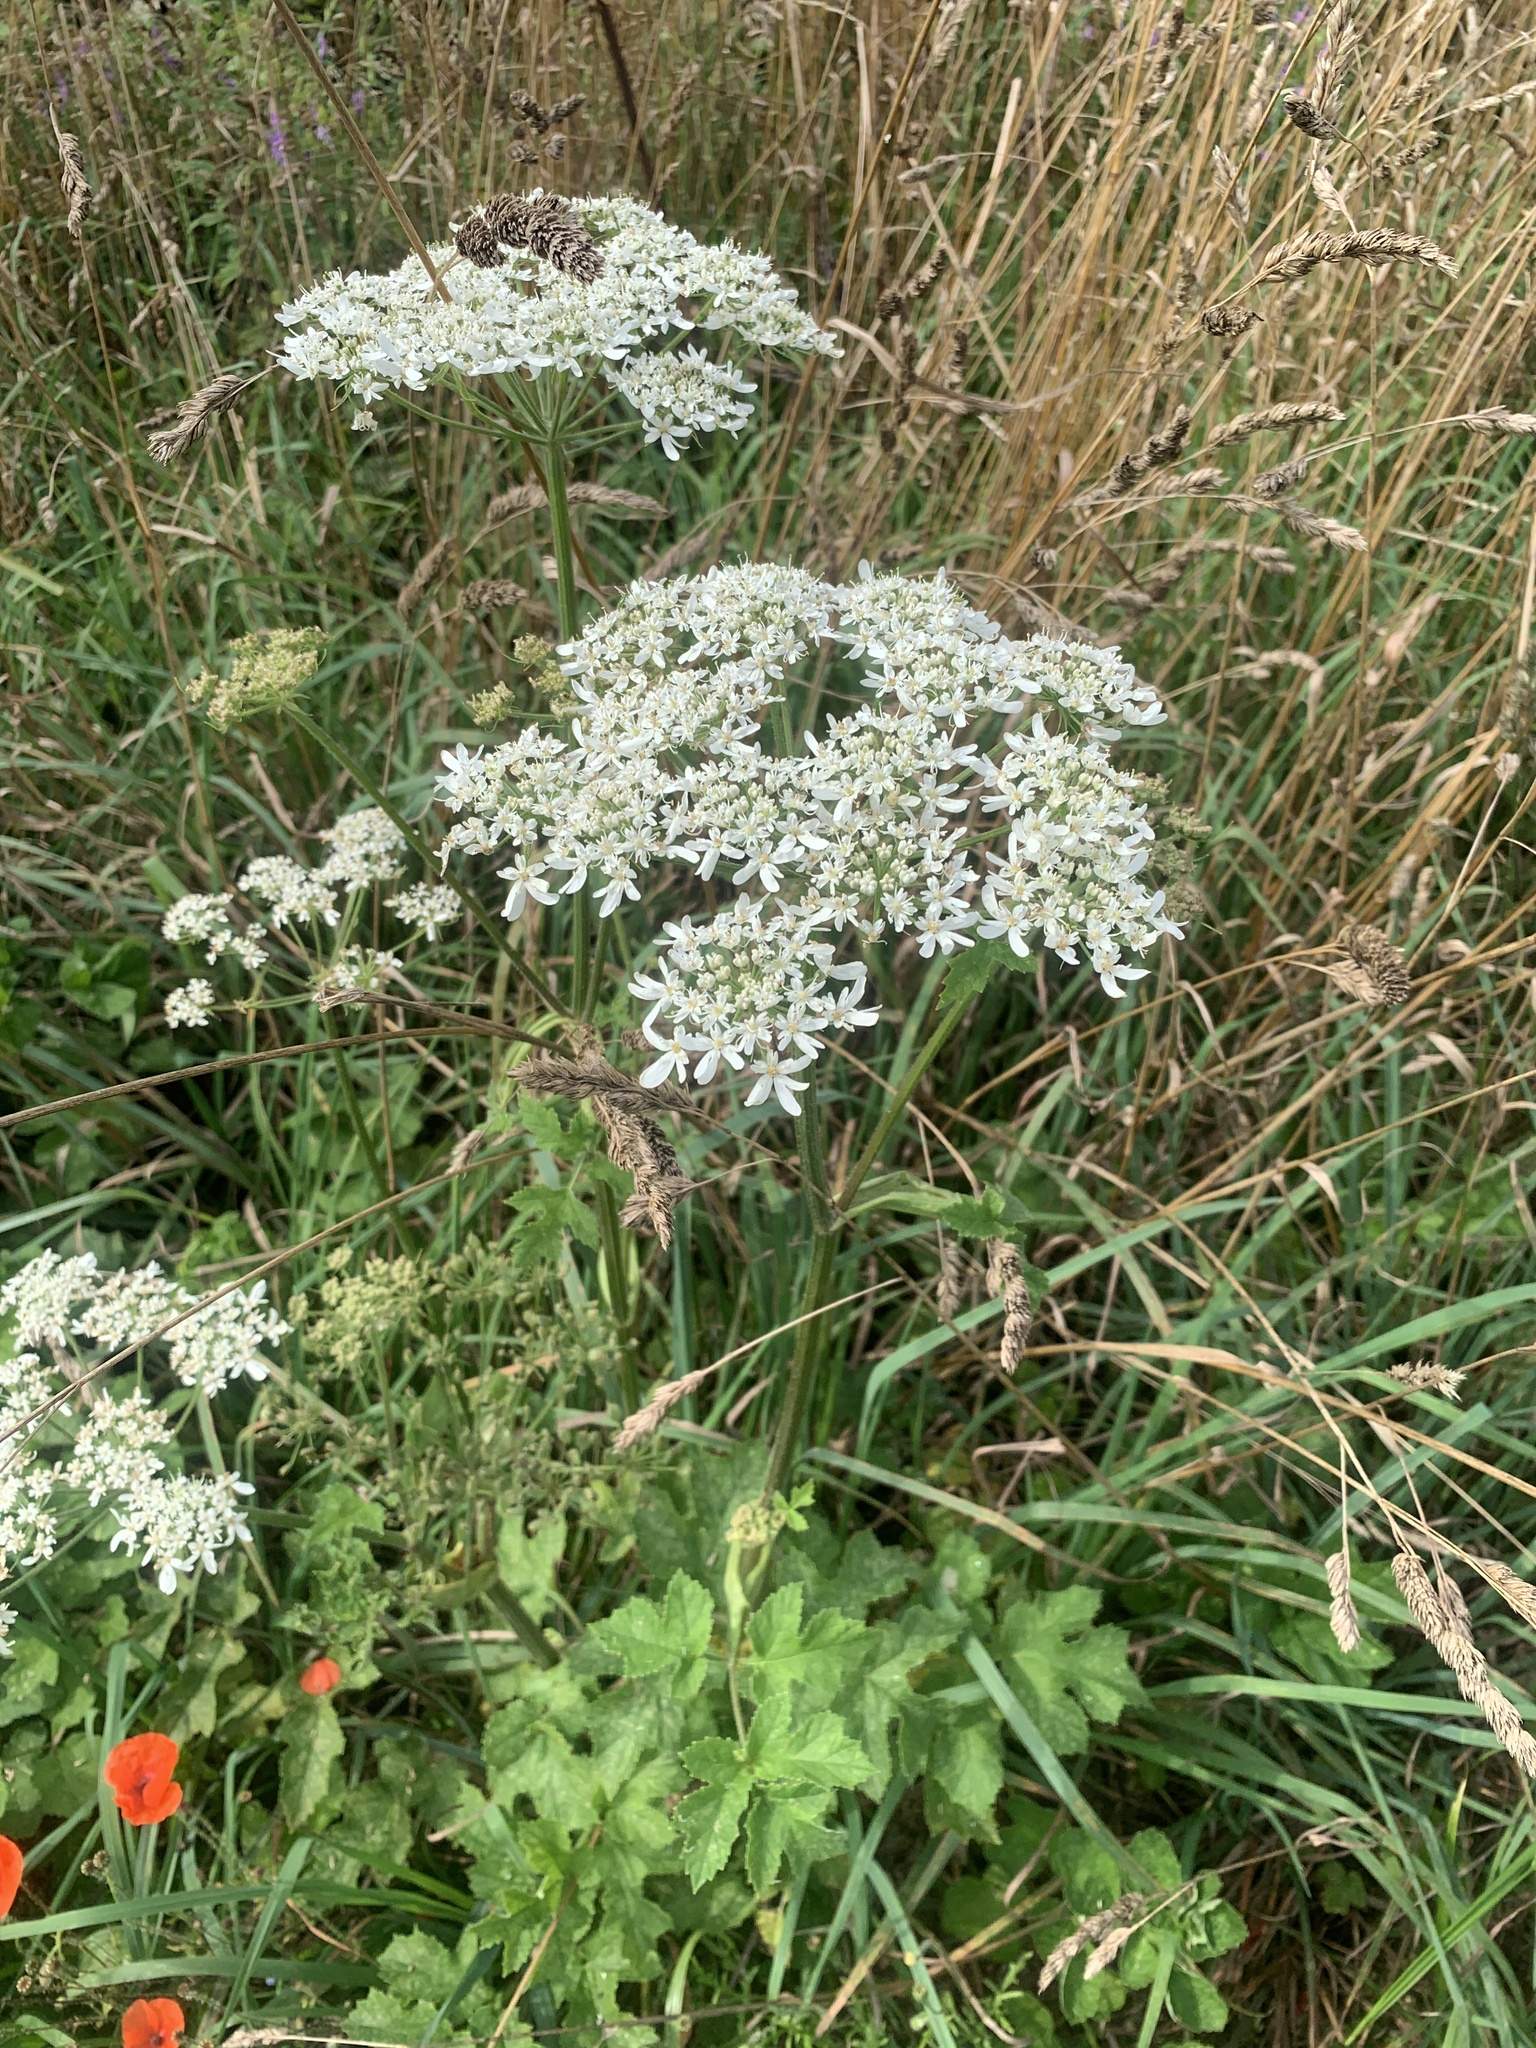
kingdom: Plantae
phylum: Tracheophyta
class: Magnoliopsida
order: Apiales
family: Apiaceae
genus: Heracleum
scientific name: Heracleum sphondylium
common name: Hogweed
